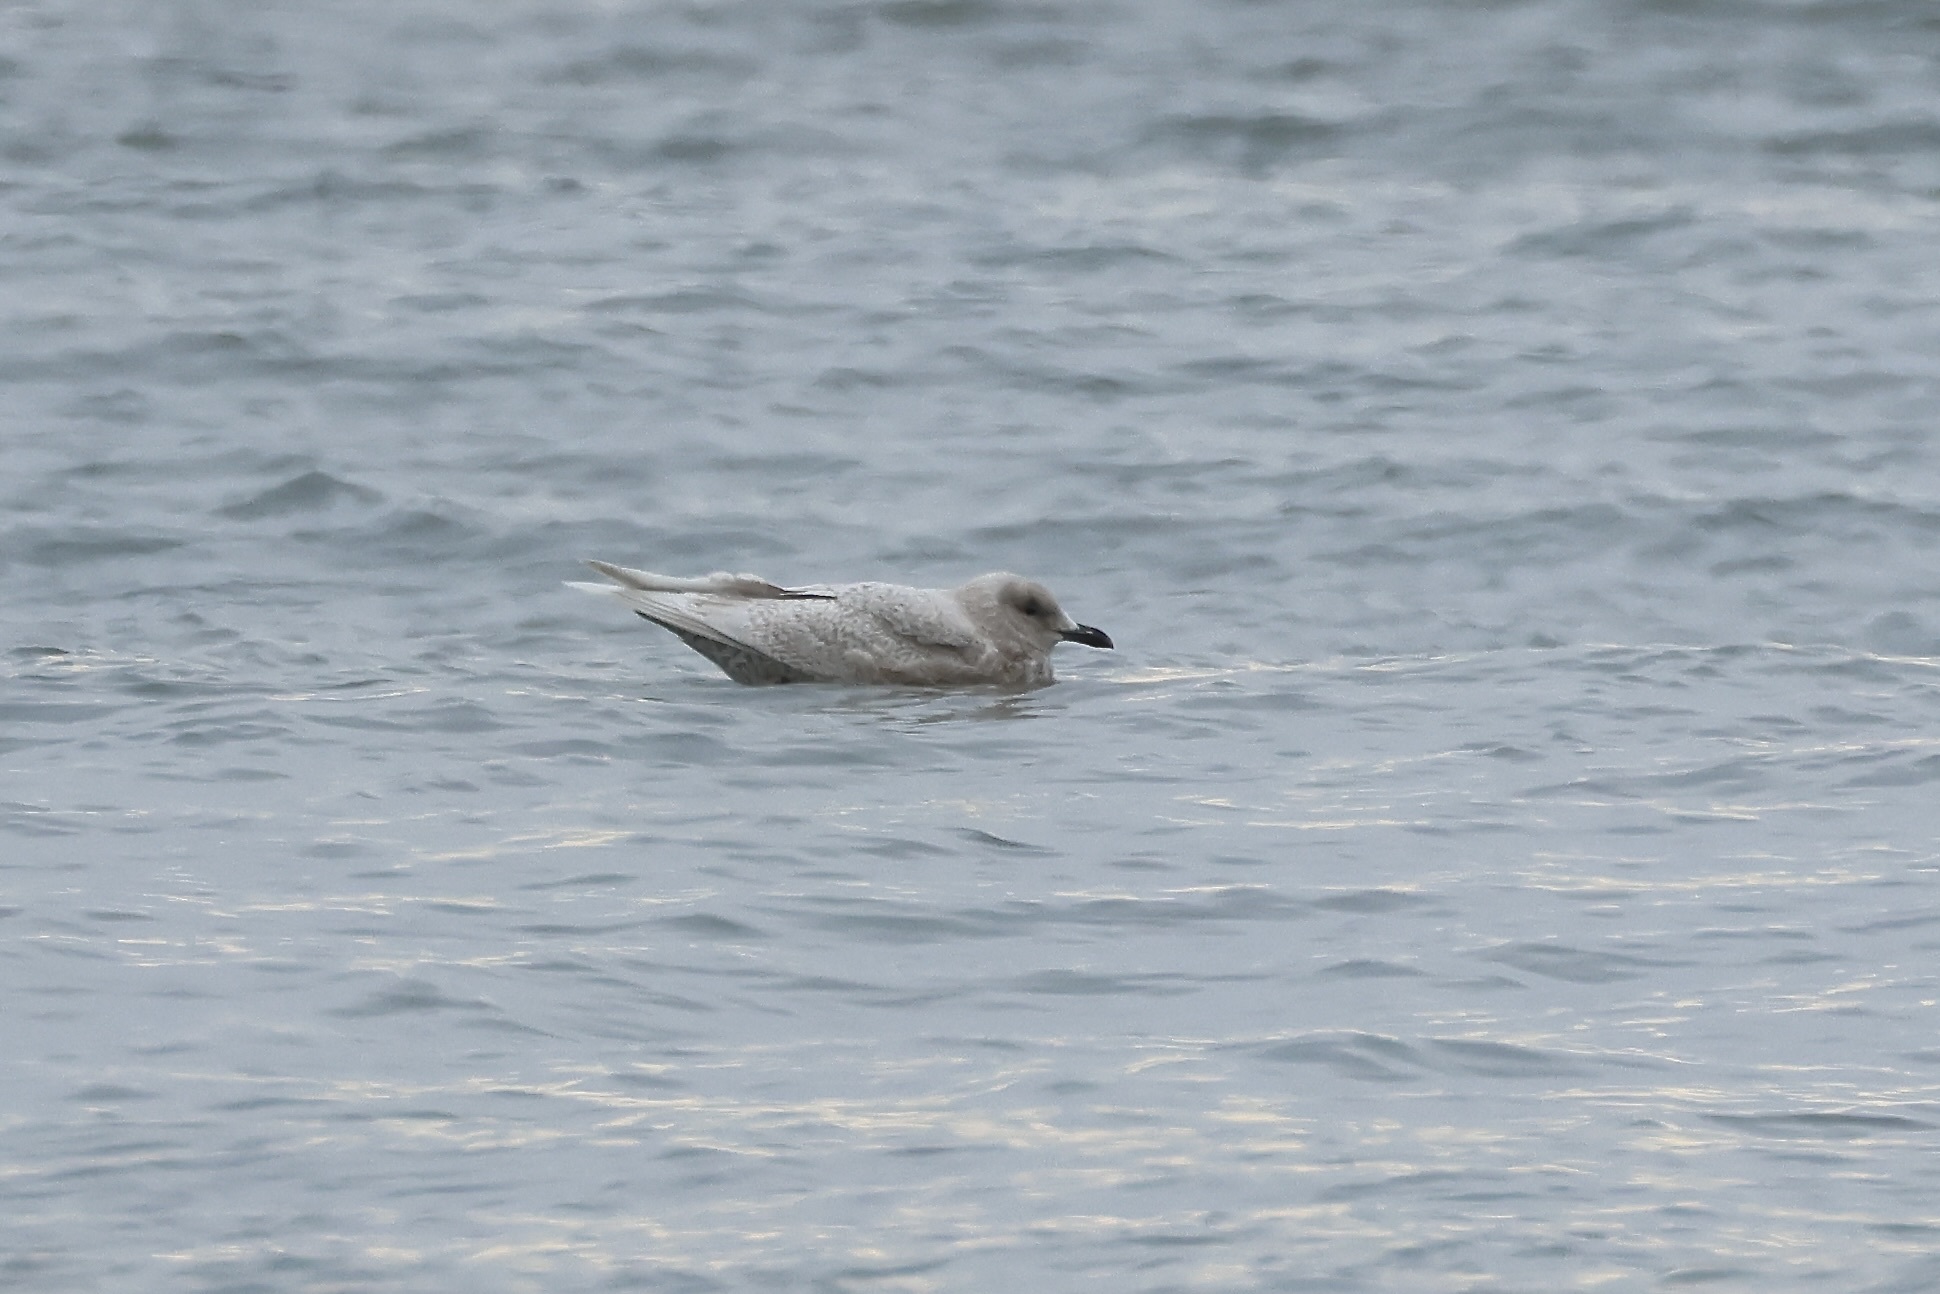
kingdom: Animalia
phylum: Chordata
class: Aves
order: Charadriiformes
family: Laridae
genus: Larus
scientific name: Larus glaucoides
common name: Iceland gull
